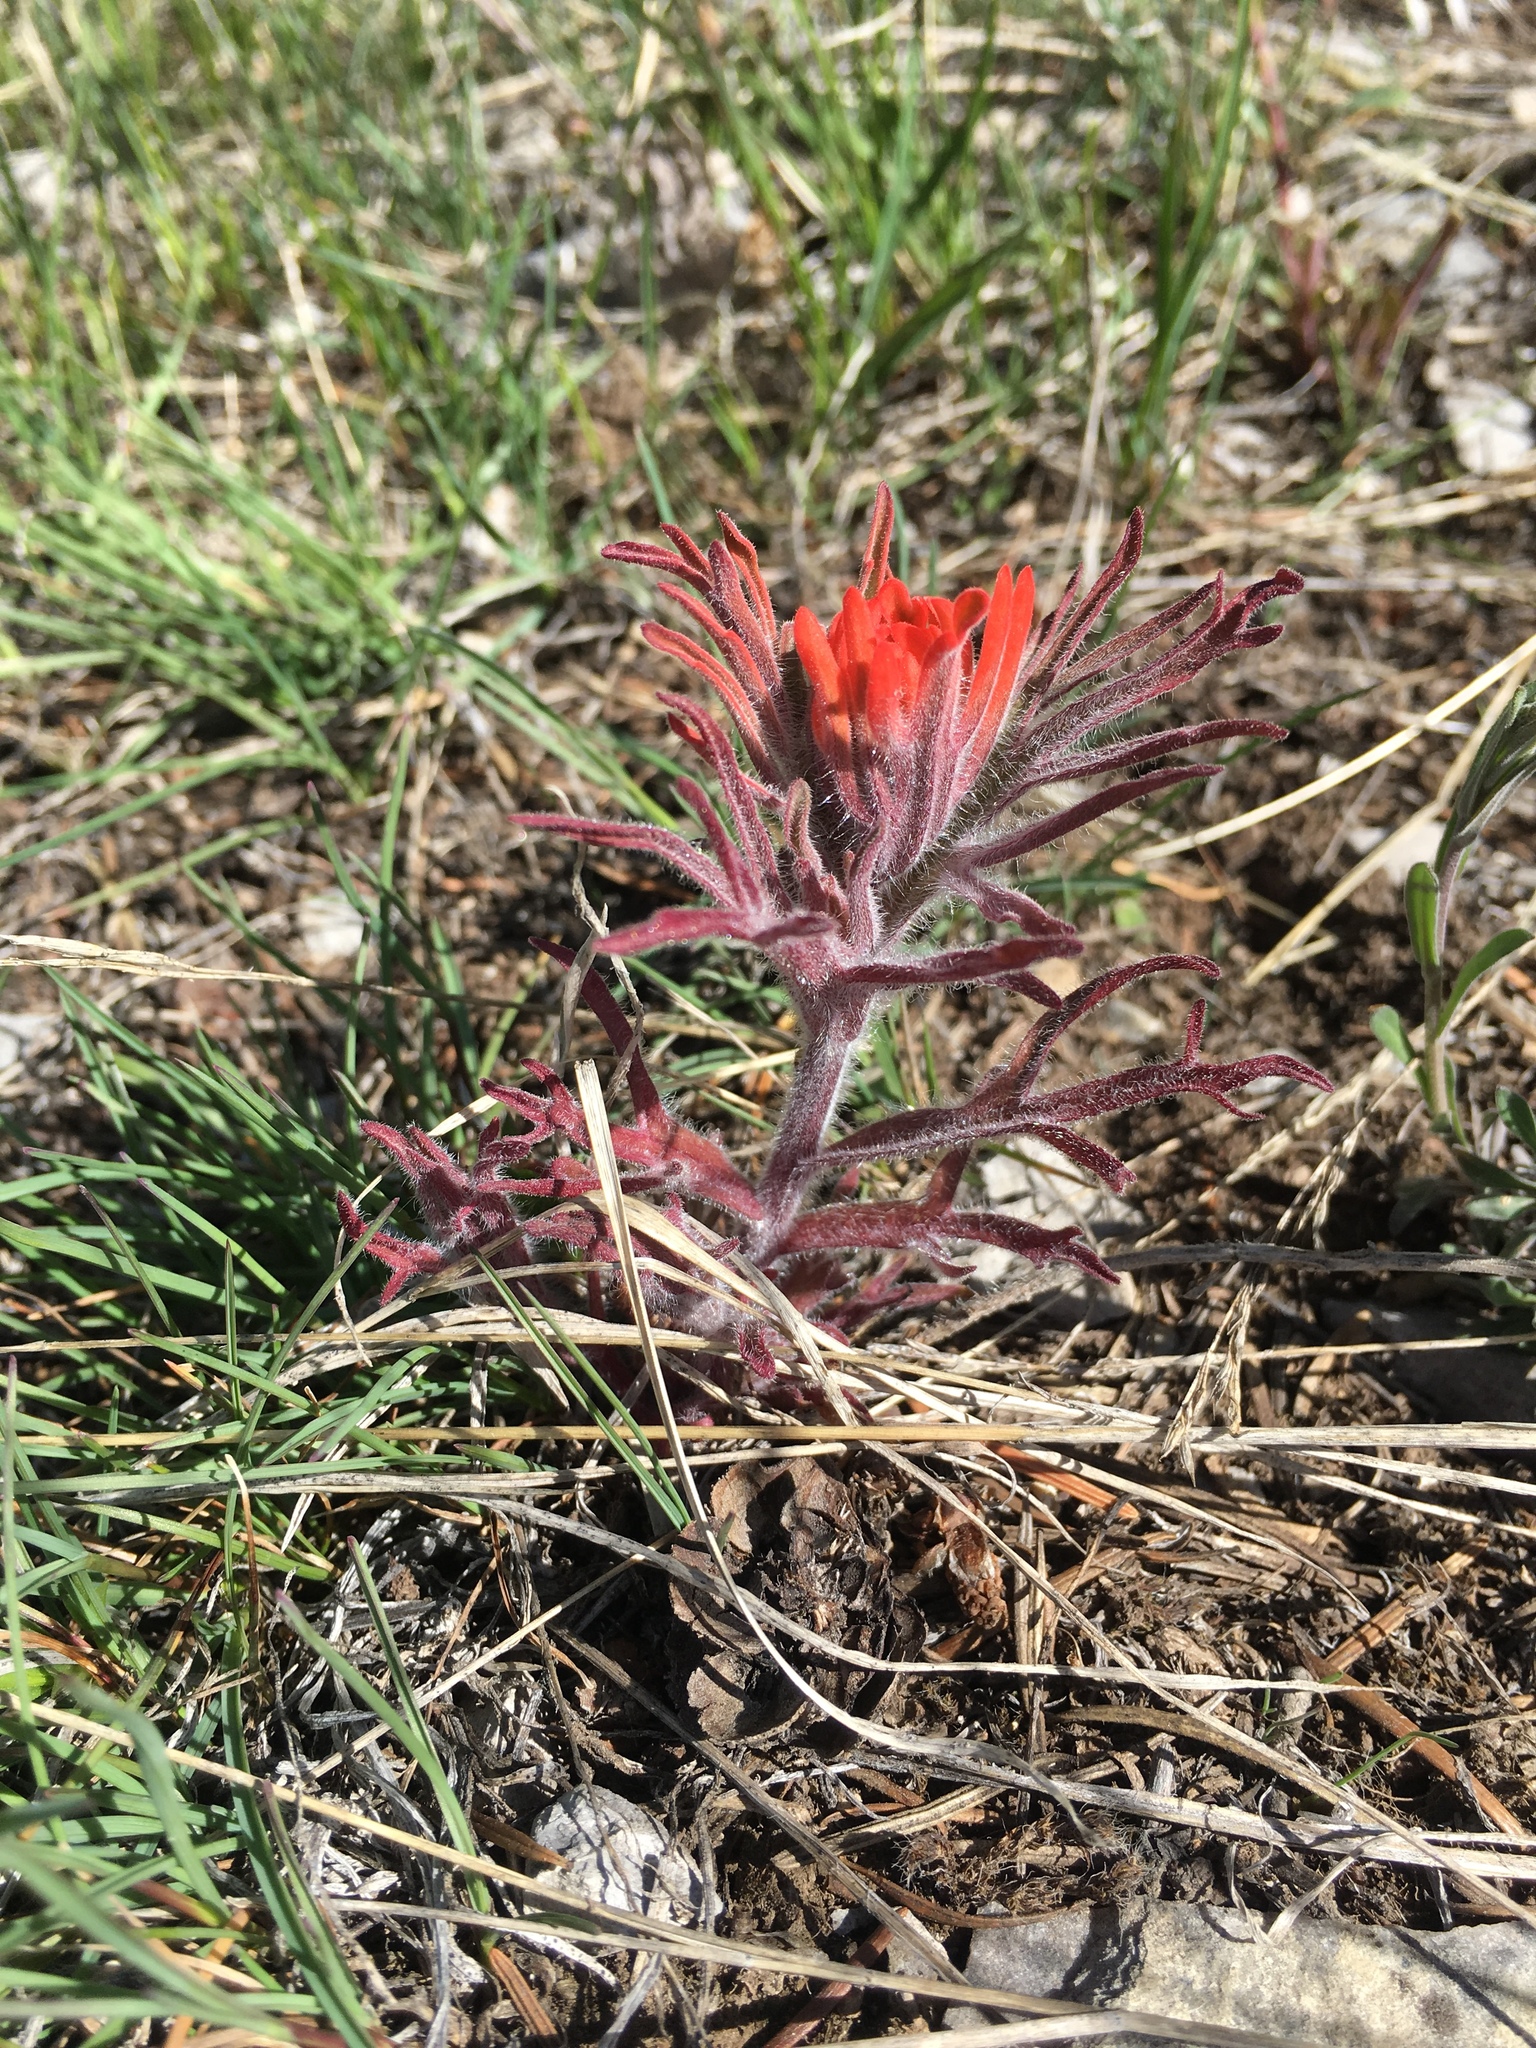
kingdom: Plantae
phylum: Tracheophyta
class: Magnoliopsida
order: Lamiales
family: Orobanchaceae
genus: Castilleja
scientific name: Castilleja chromosa
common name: Desert paintbrush
